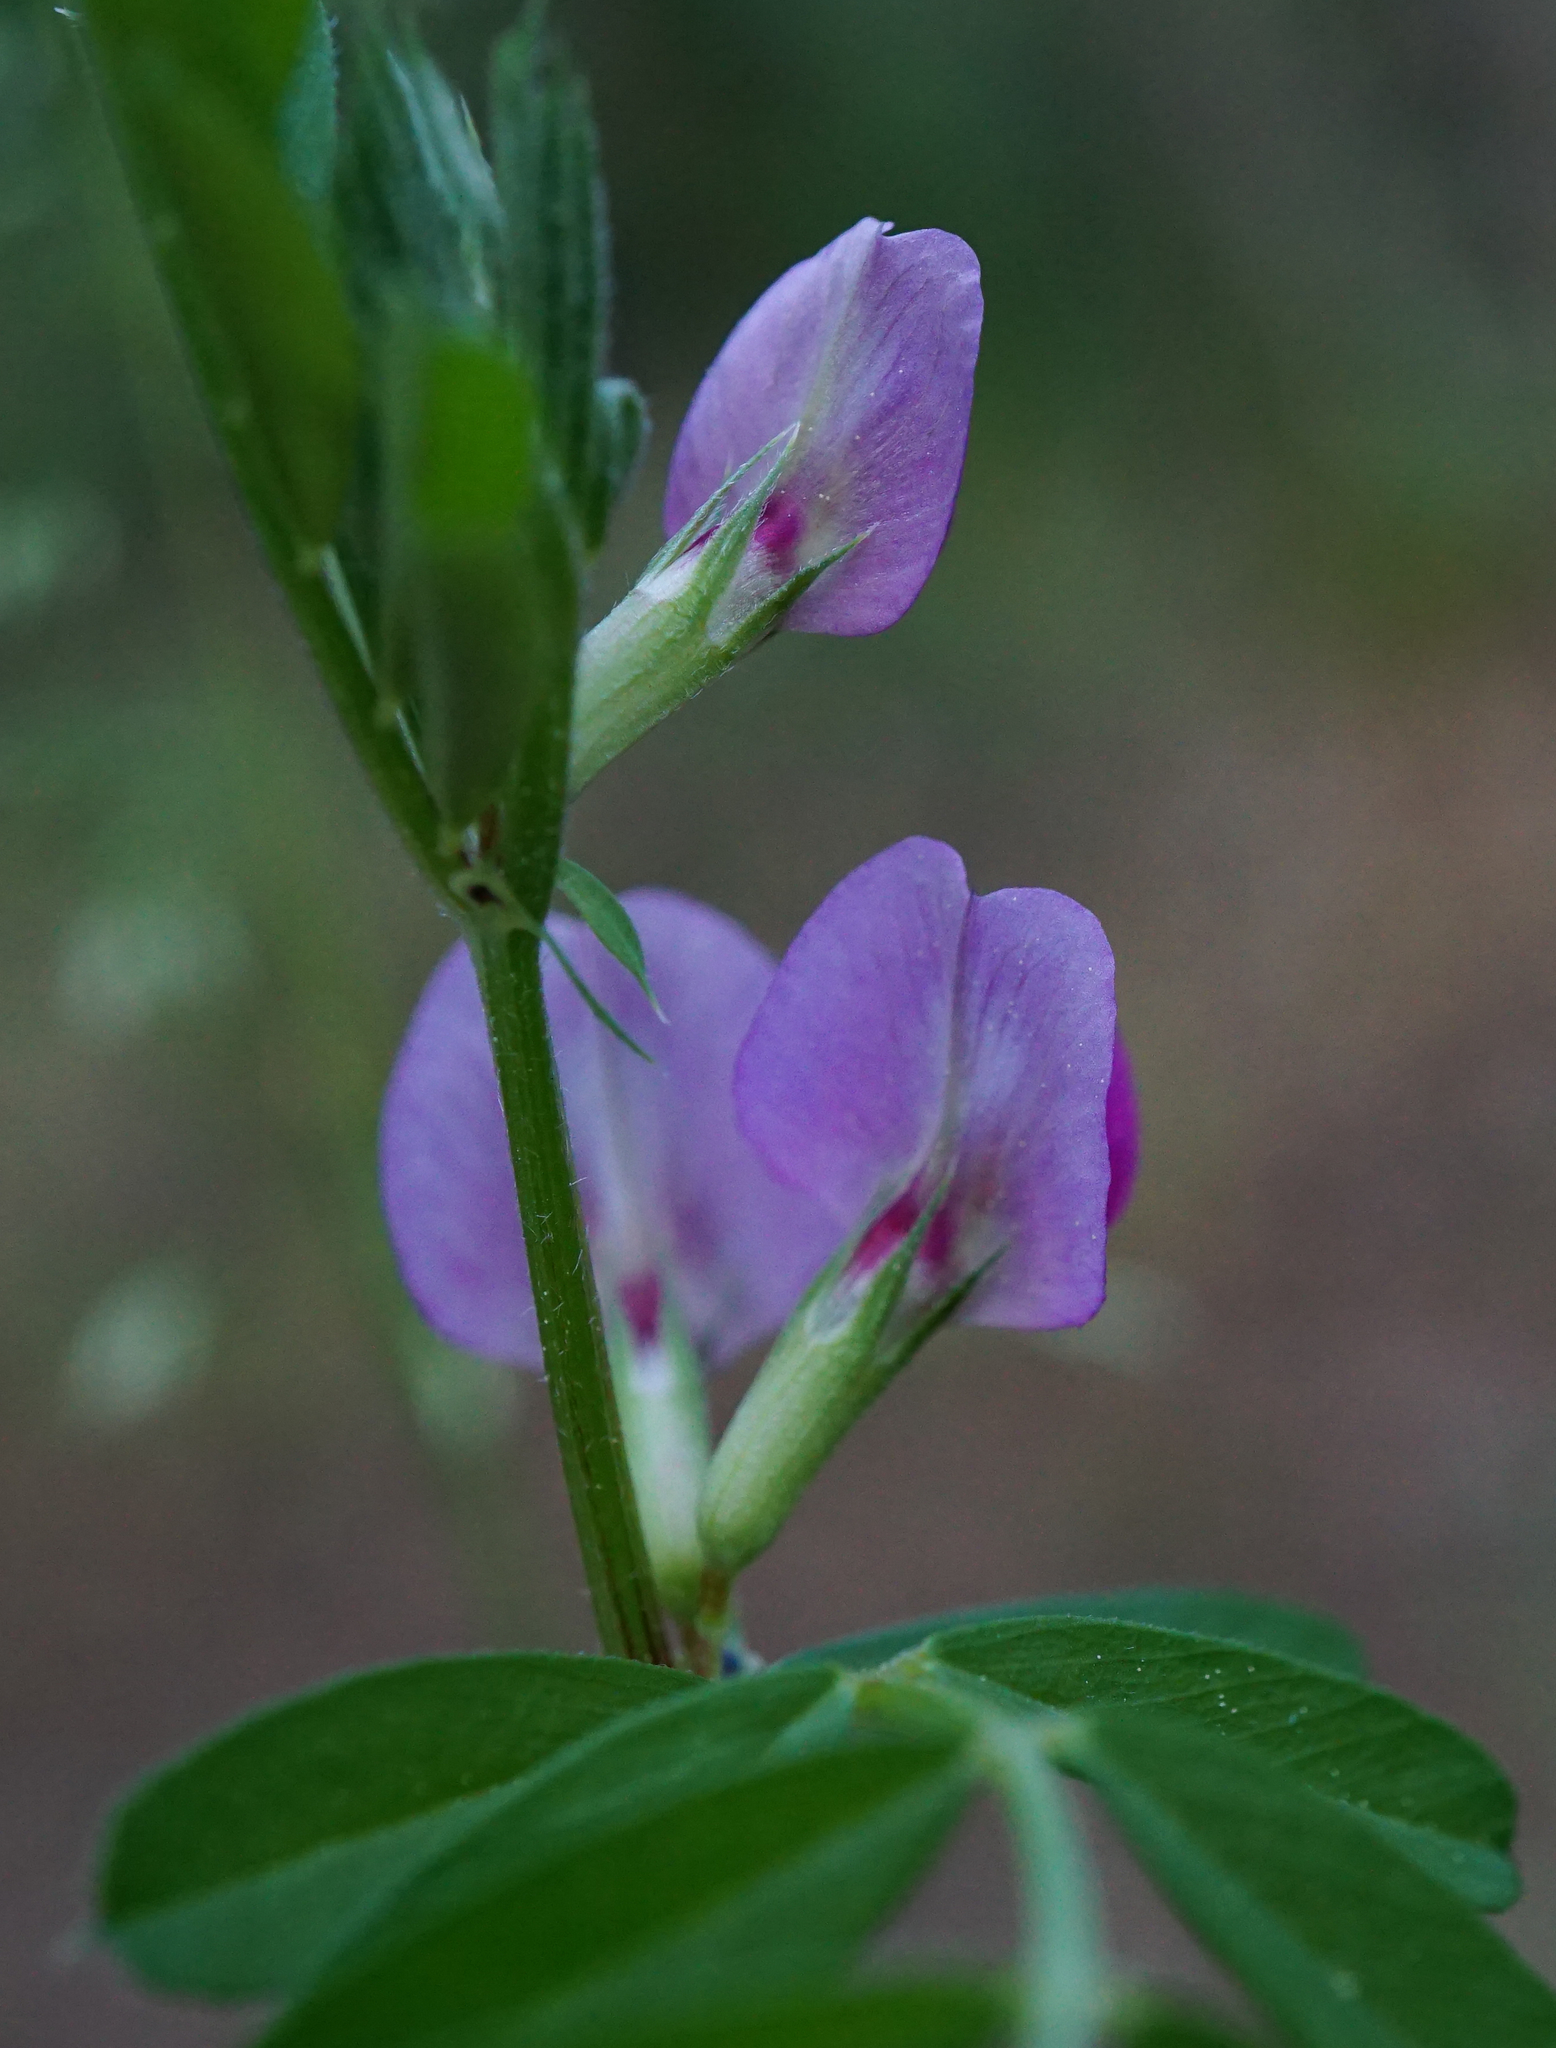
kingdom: Plantae
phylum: Tracheophyta
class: Magnoliopsida
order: Fabales
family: Fabaceae
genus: Vicia
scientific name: Vicia sativa
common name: Garden vetch
